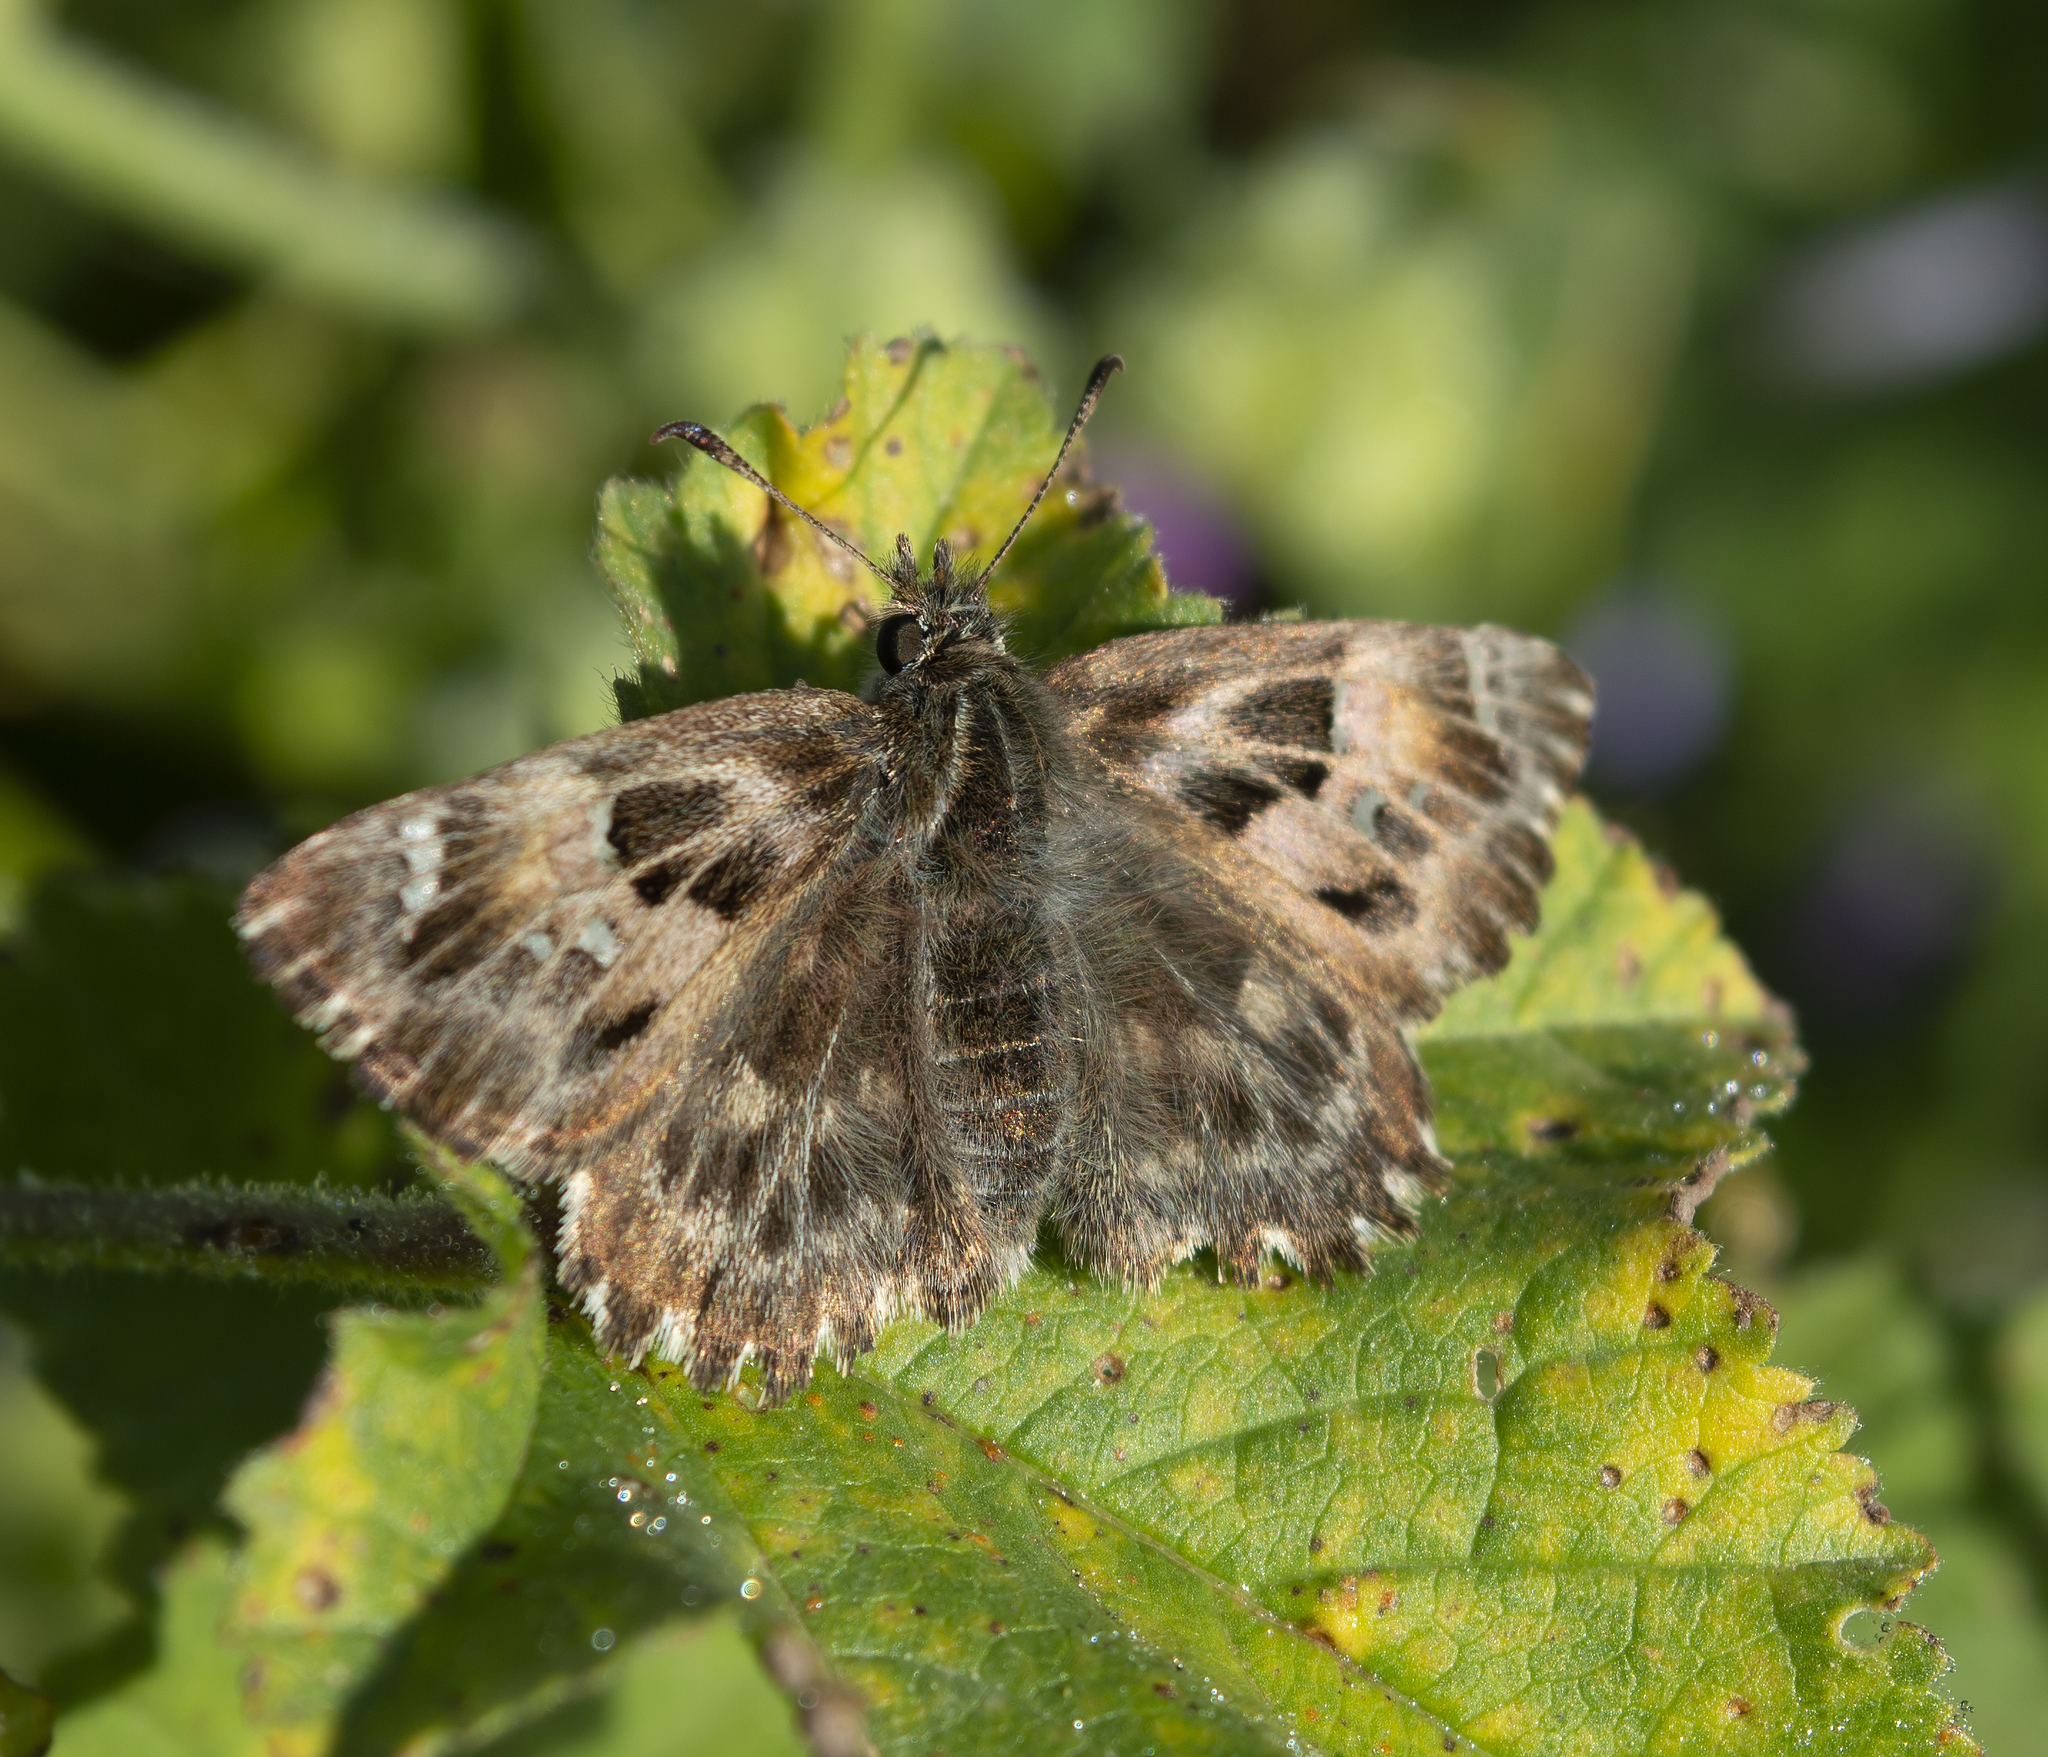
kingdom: Animalia
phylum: Arthropoda
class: Insecta
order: Lepidoptera
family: Hesperiidae
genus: Carcharodus
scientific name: Carcharodus alceae
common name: Mallow skipper
